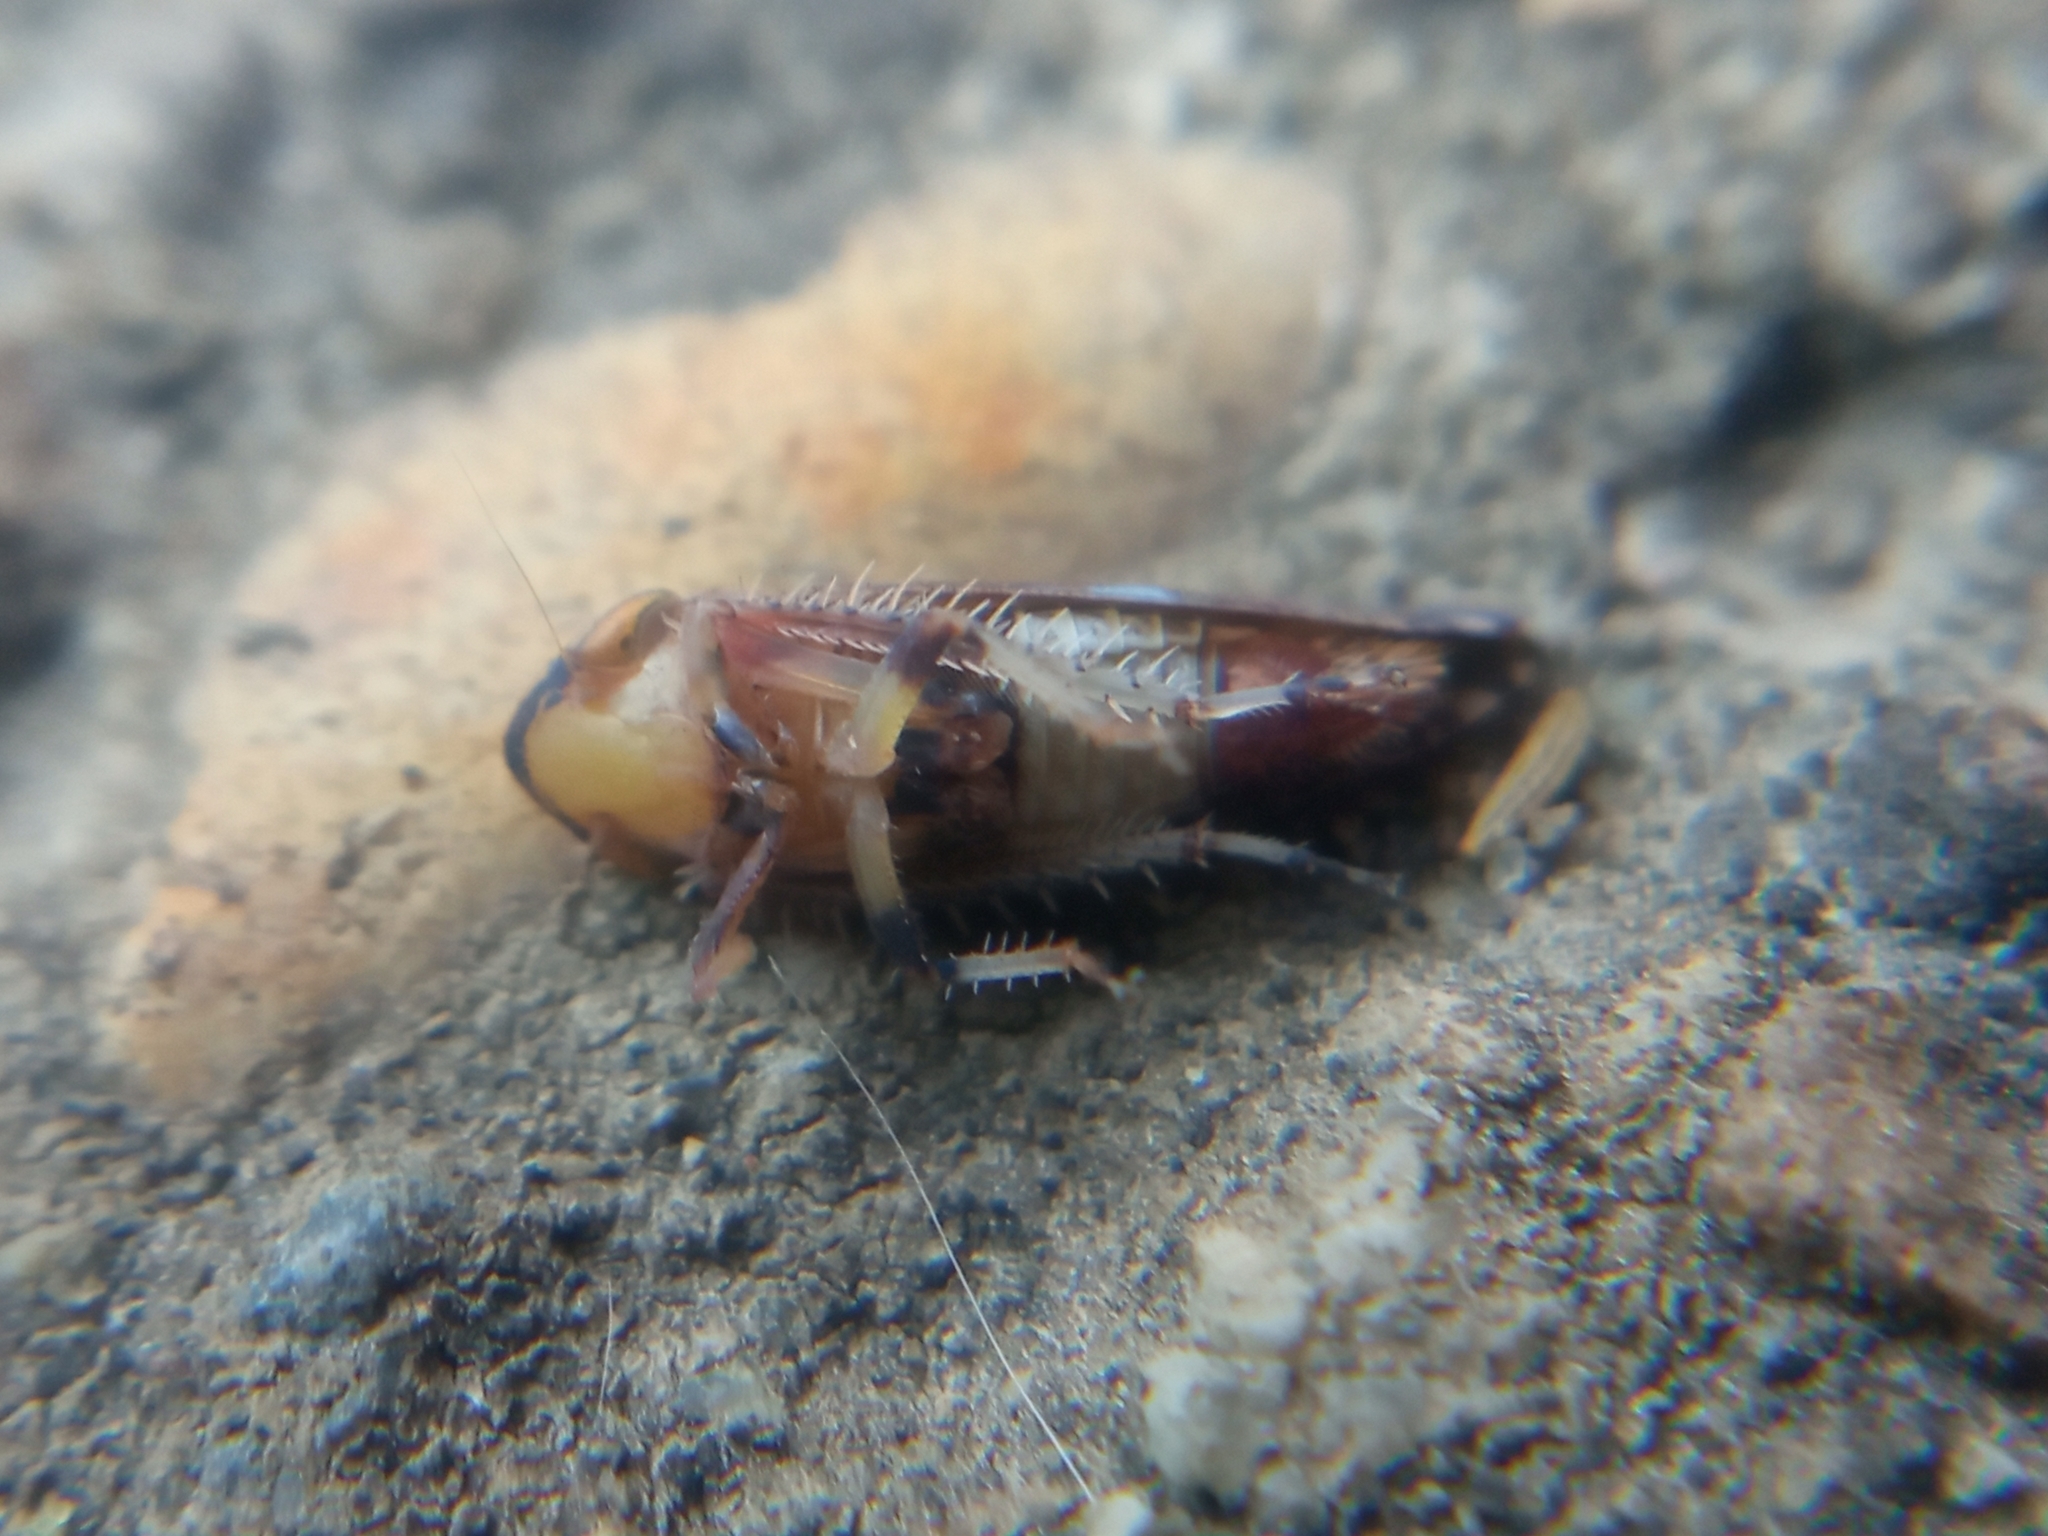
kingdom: Animalia
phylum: Arthropoda
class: Insecta
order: Hemiptera
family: Cicadellidae
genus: Fieberiella
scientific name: Fieberiella florii
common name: Flor’s leafhopper
